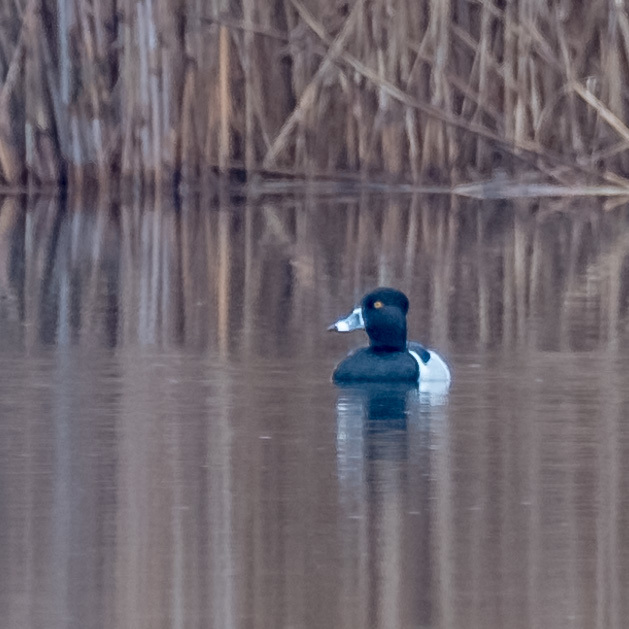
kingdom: Animalia
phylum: Chordata
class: Aves
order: Anseriformes
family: Anatidae
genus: Aythya
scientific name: Aythya collaris
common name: Ring-necked duck
